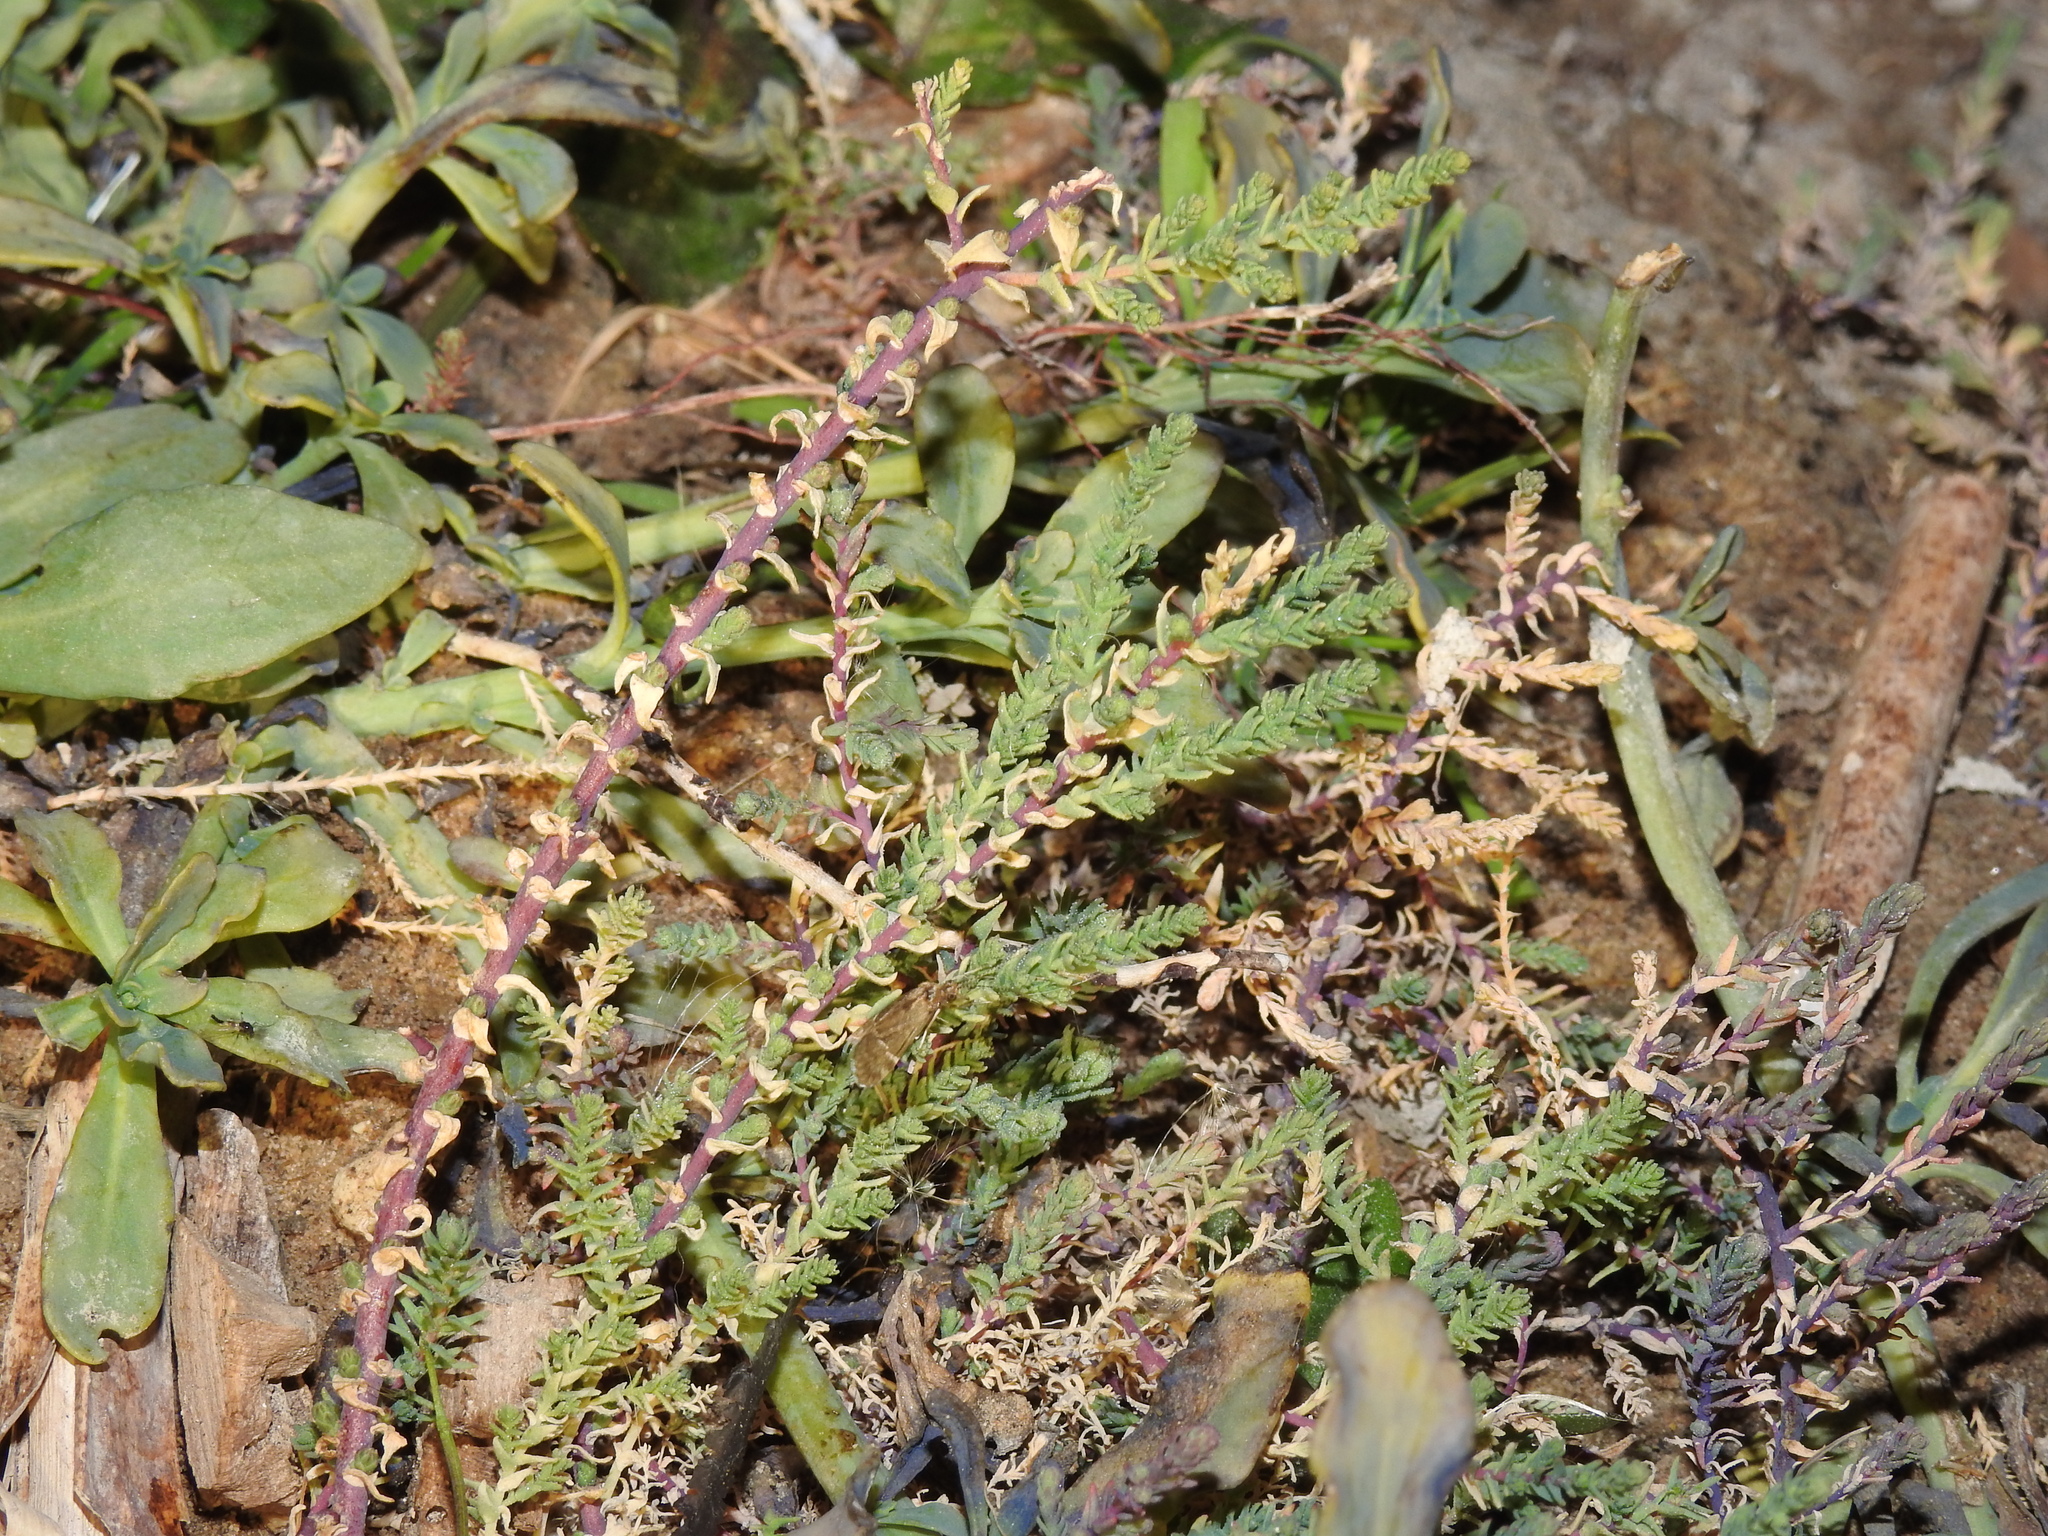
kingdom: Plantae
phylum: Tracheophyta
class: Magnoliopsida
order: Caryophyllales
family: Amaranthaceae
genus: Suaeda
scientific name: Suaeda nigra
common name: Bush seepweed
